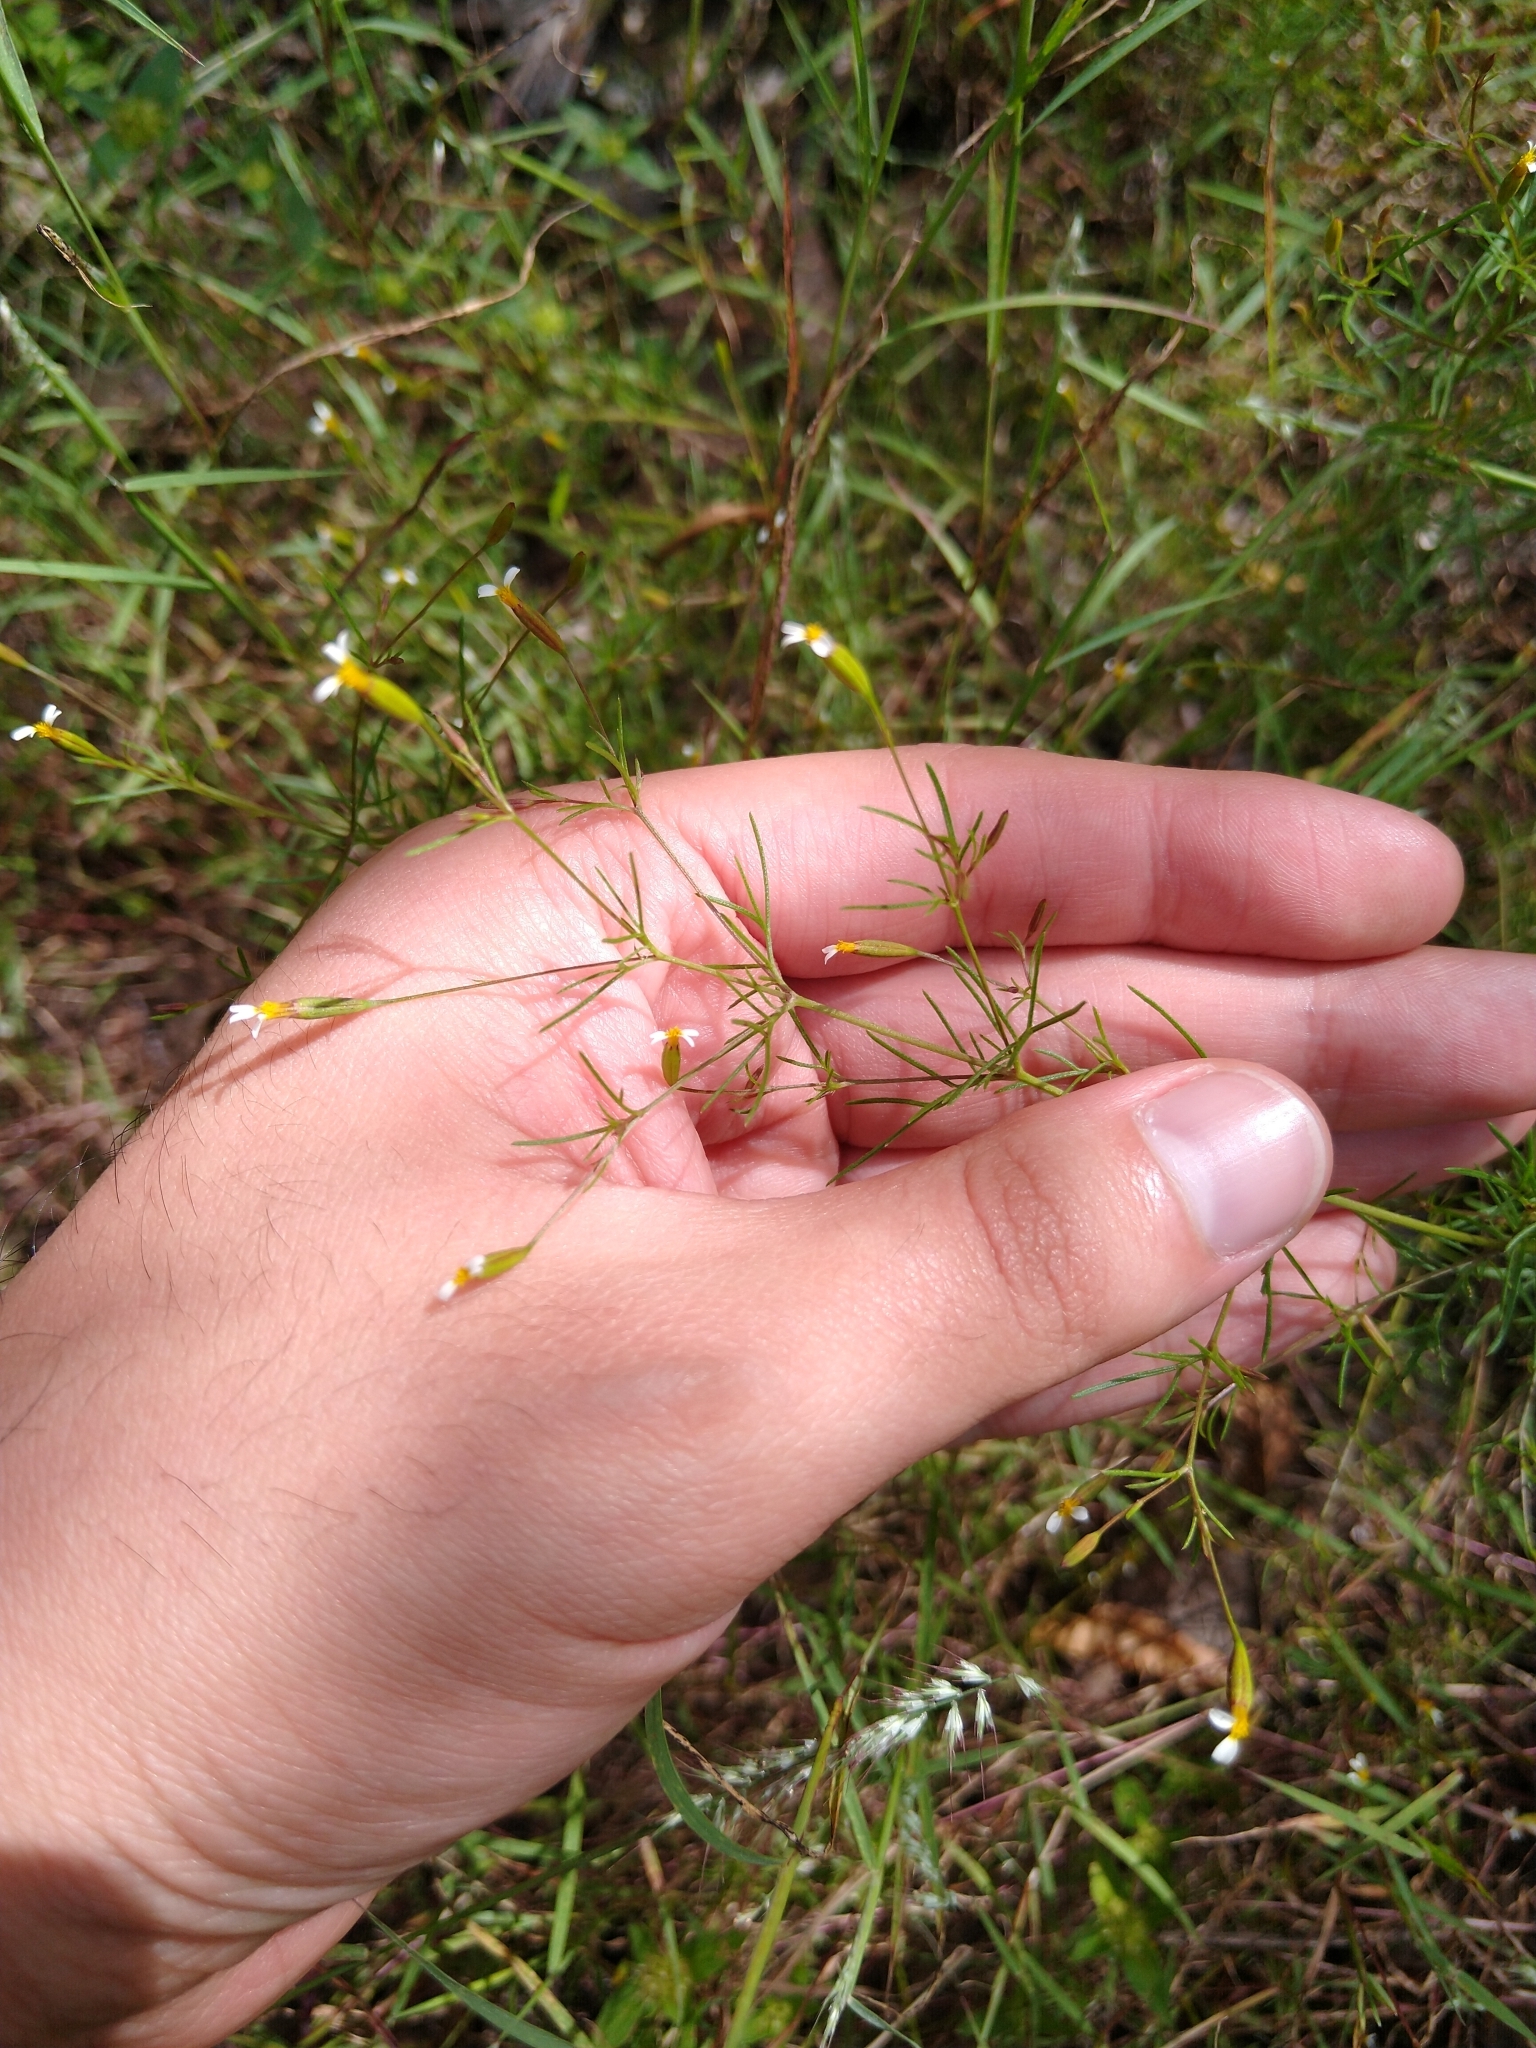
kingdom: Plantae
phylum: Tracheophyta
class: Magnoliopsida
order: Asterales
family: Asteraceae
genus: Tagetes
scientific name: Tagetes micrantha
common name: Licorice marigold
